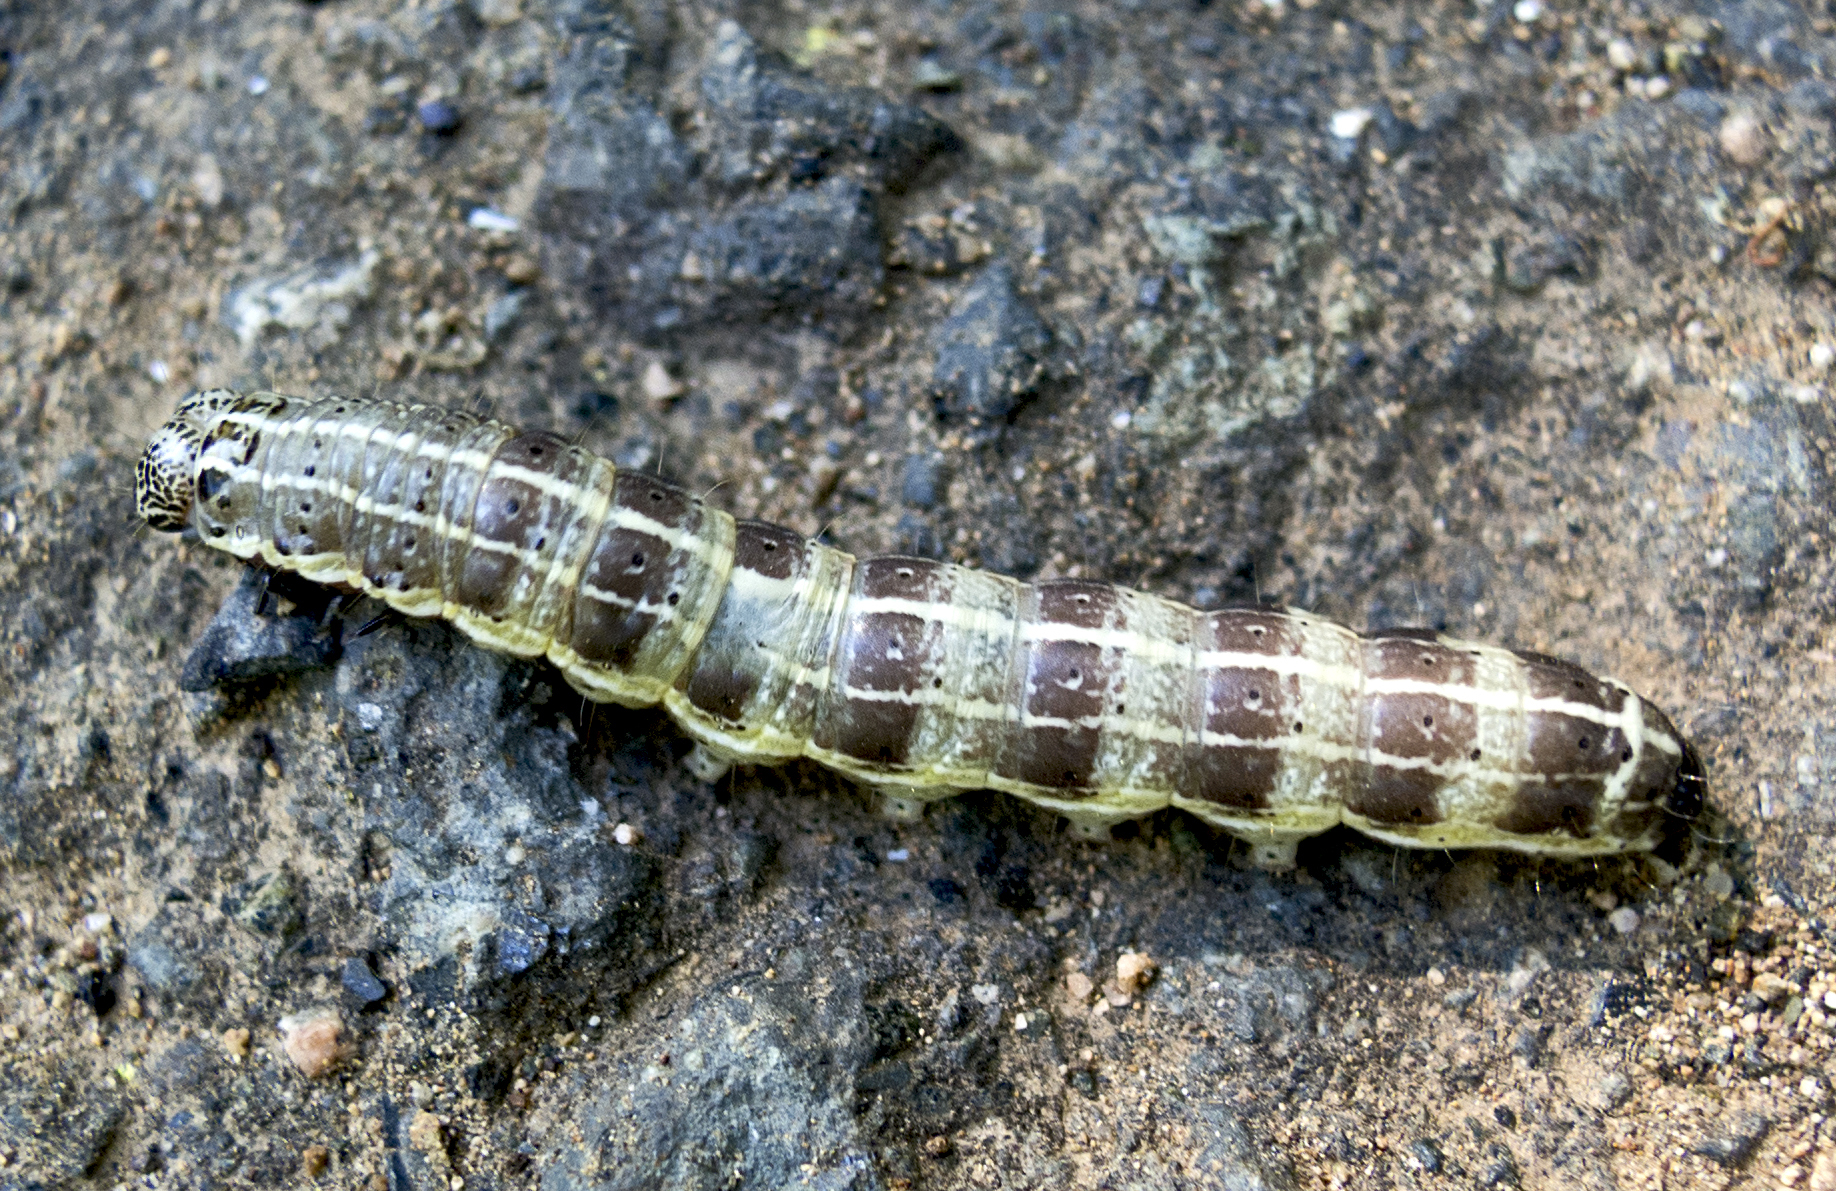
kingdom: Animalia
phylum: Arthropoda
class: Insecta
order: Lepidoptera
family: Noctuidae
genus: Cosmia
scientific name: Cosmia trapezina
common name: Dun-bar
